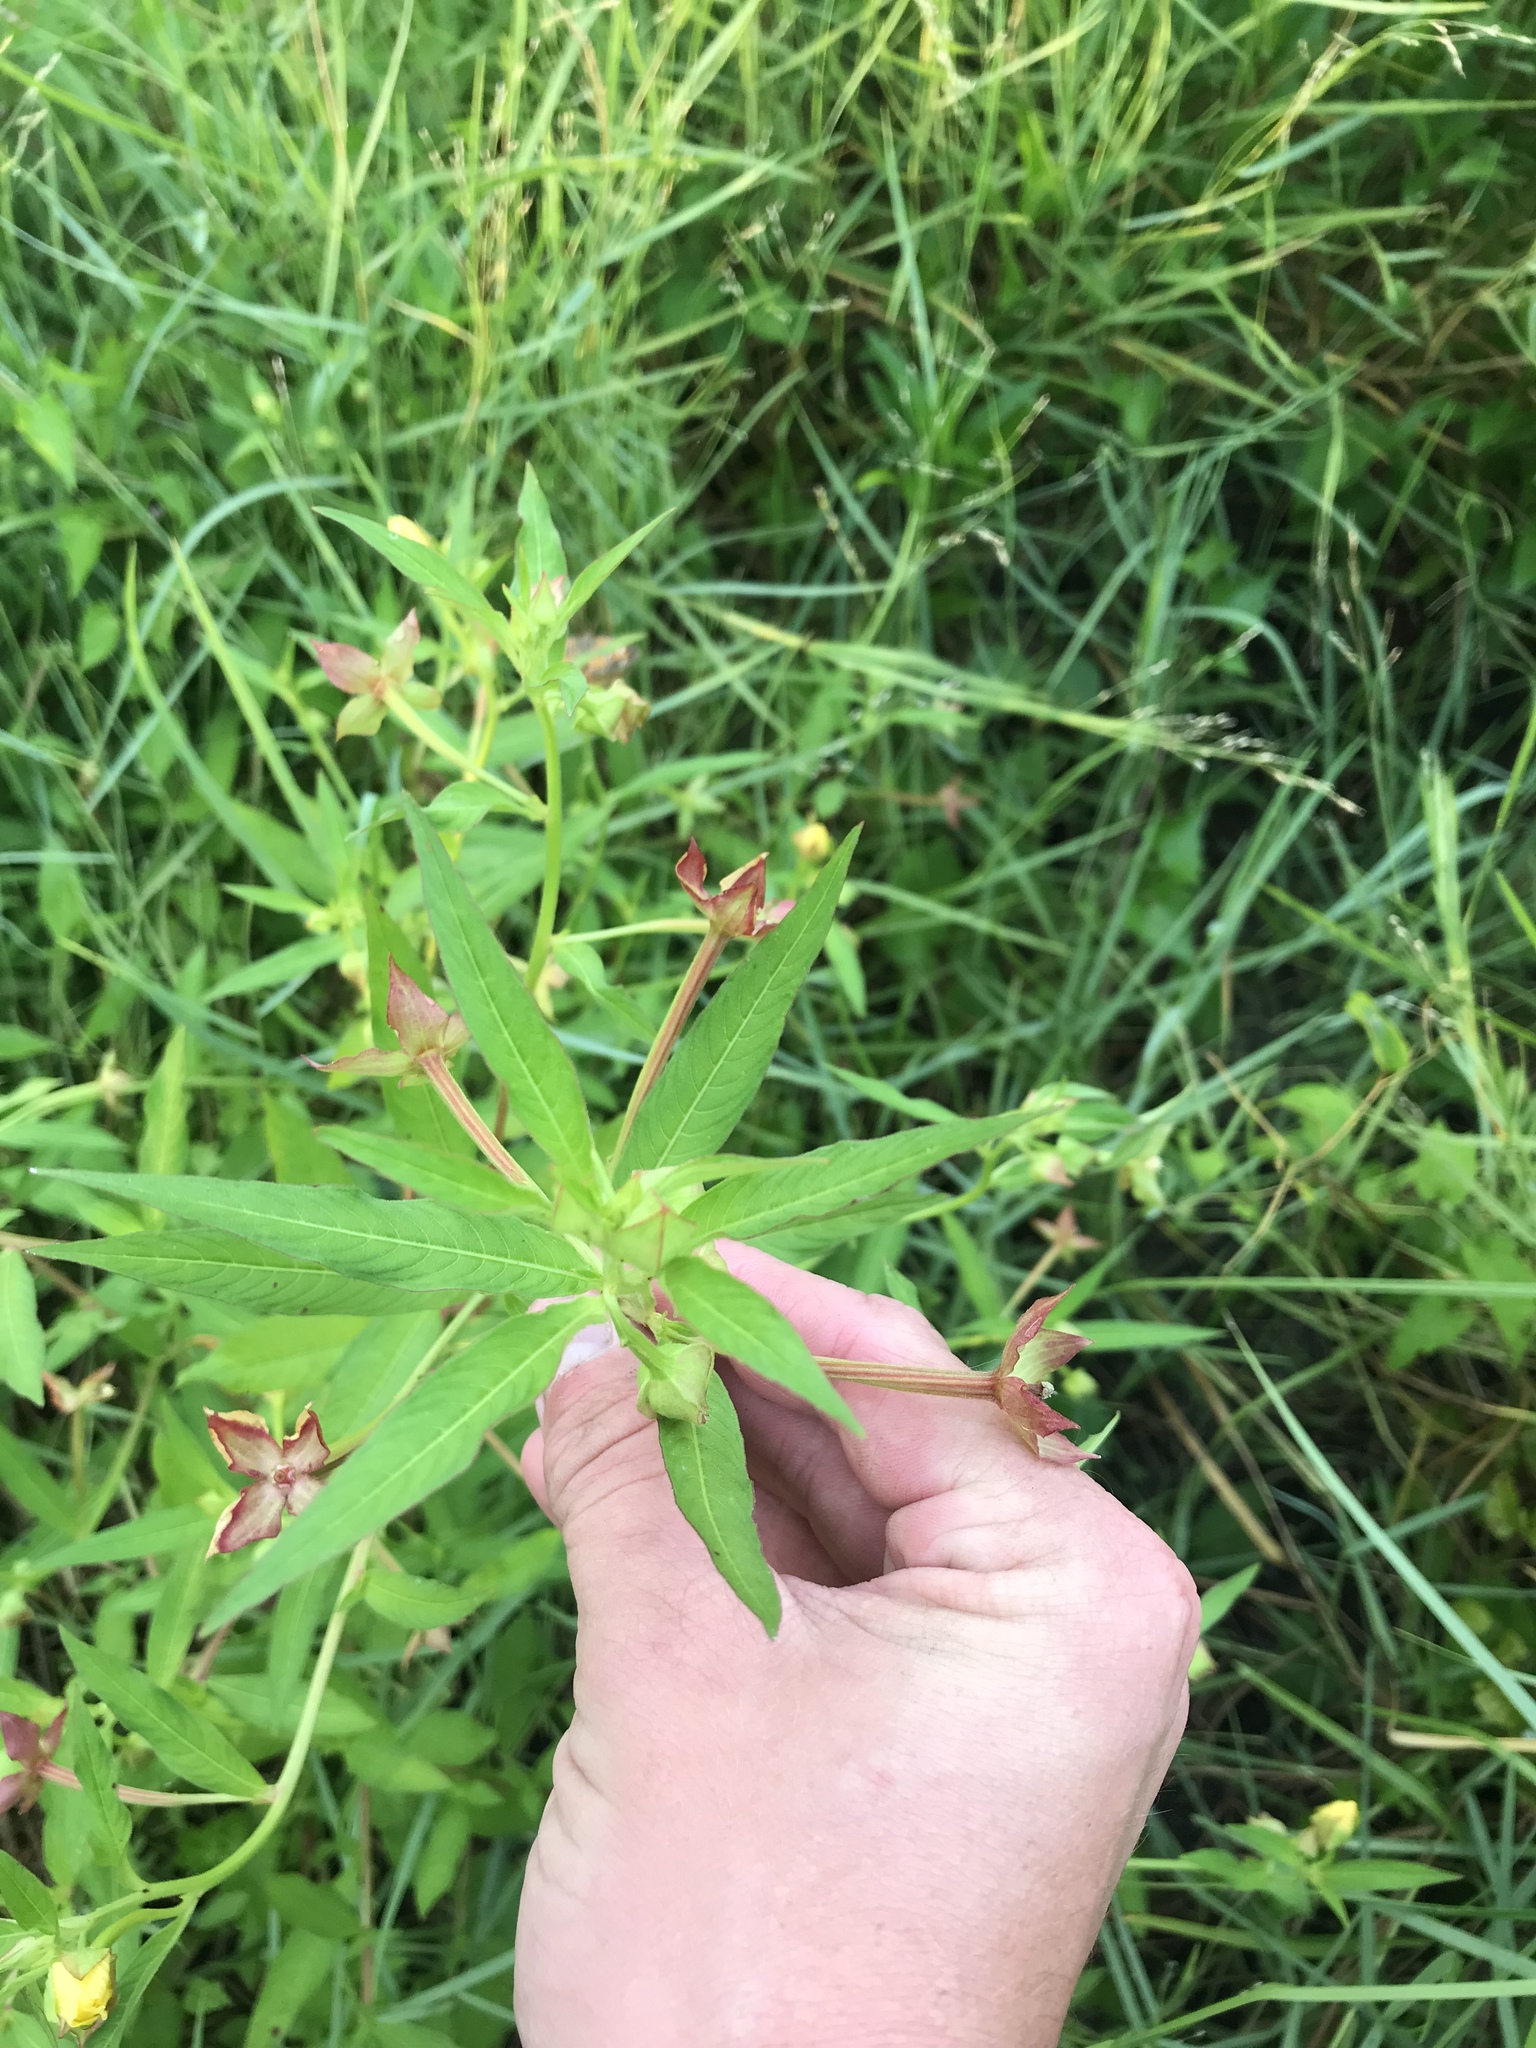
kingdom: Plantae
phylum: Tracheophyta
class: Magnoliopsida
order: Myrtales
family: Onagraceae
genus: Ludwigia
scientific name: Ludwigia octovalvis
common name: Water-primrose
